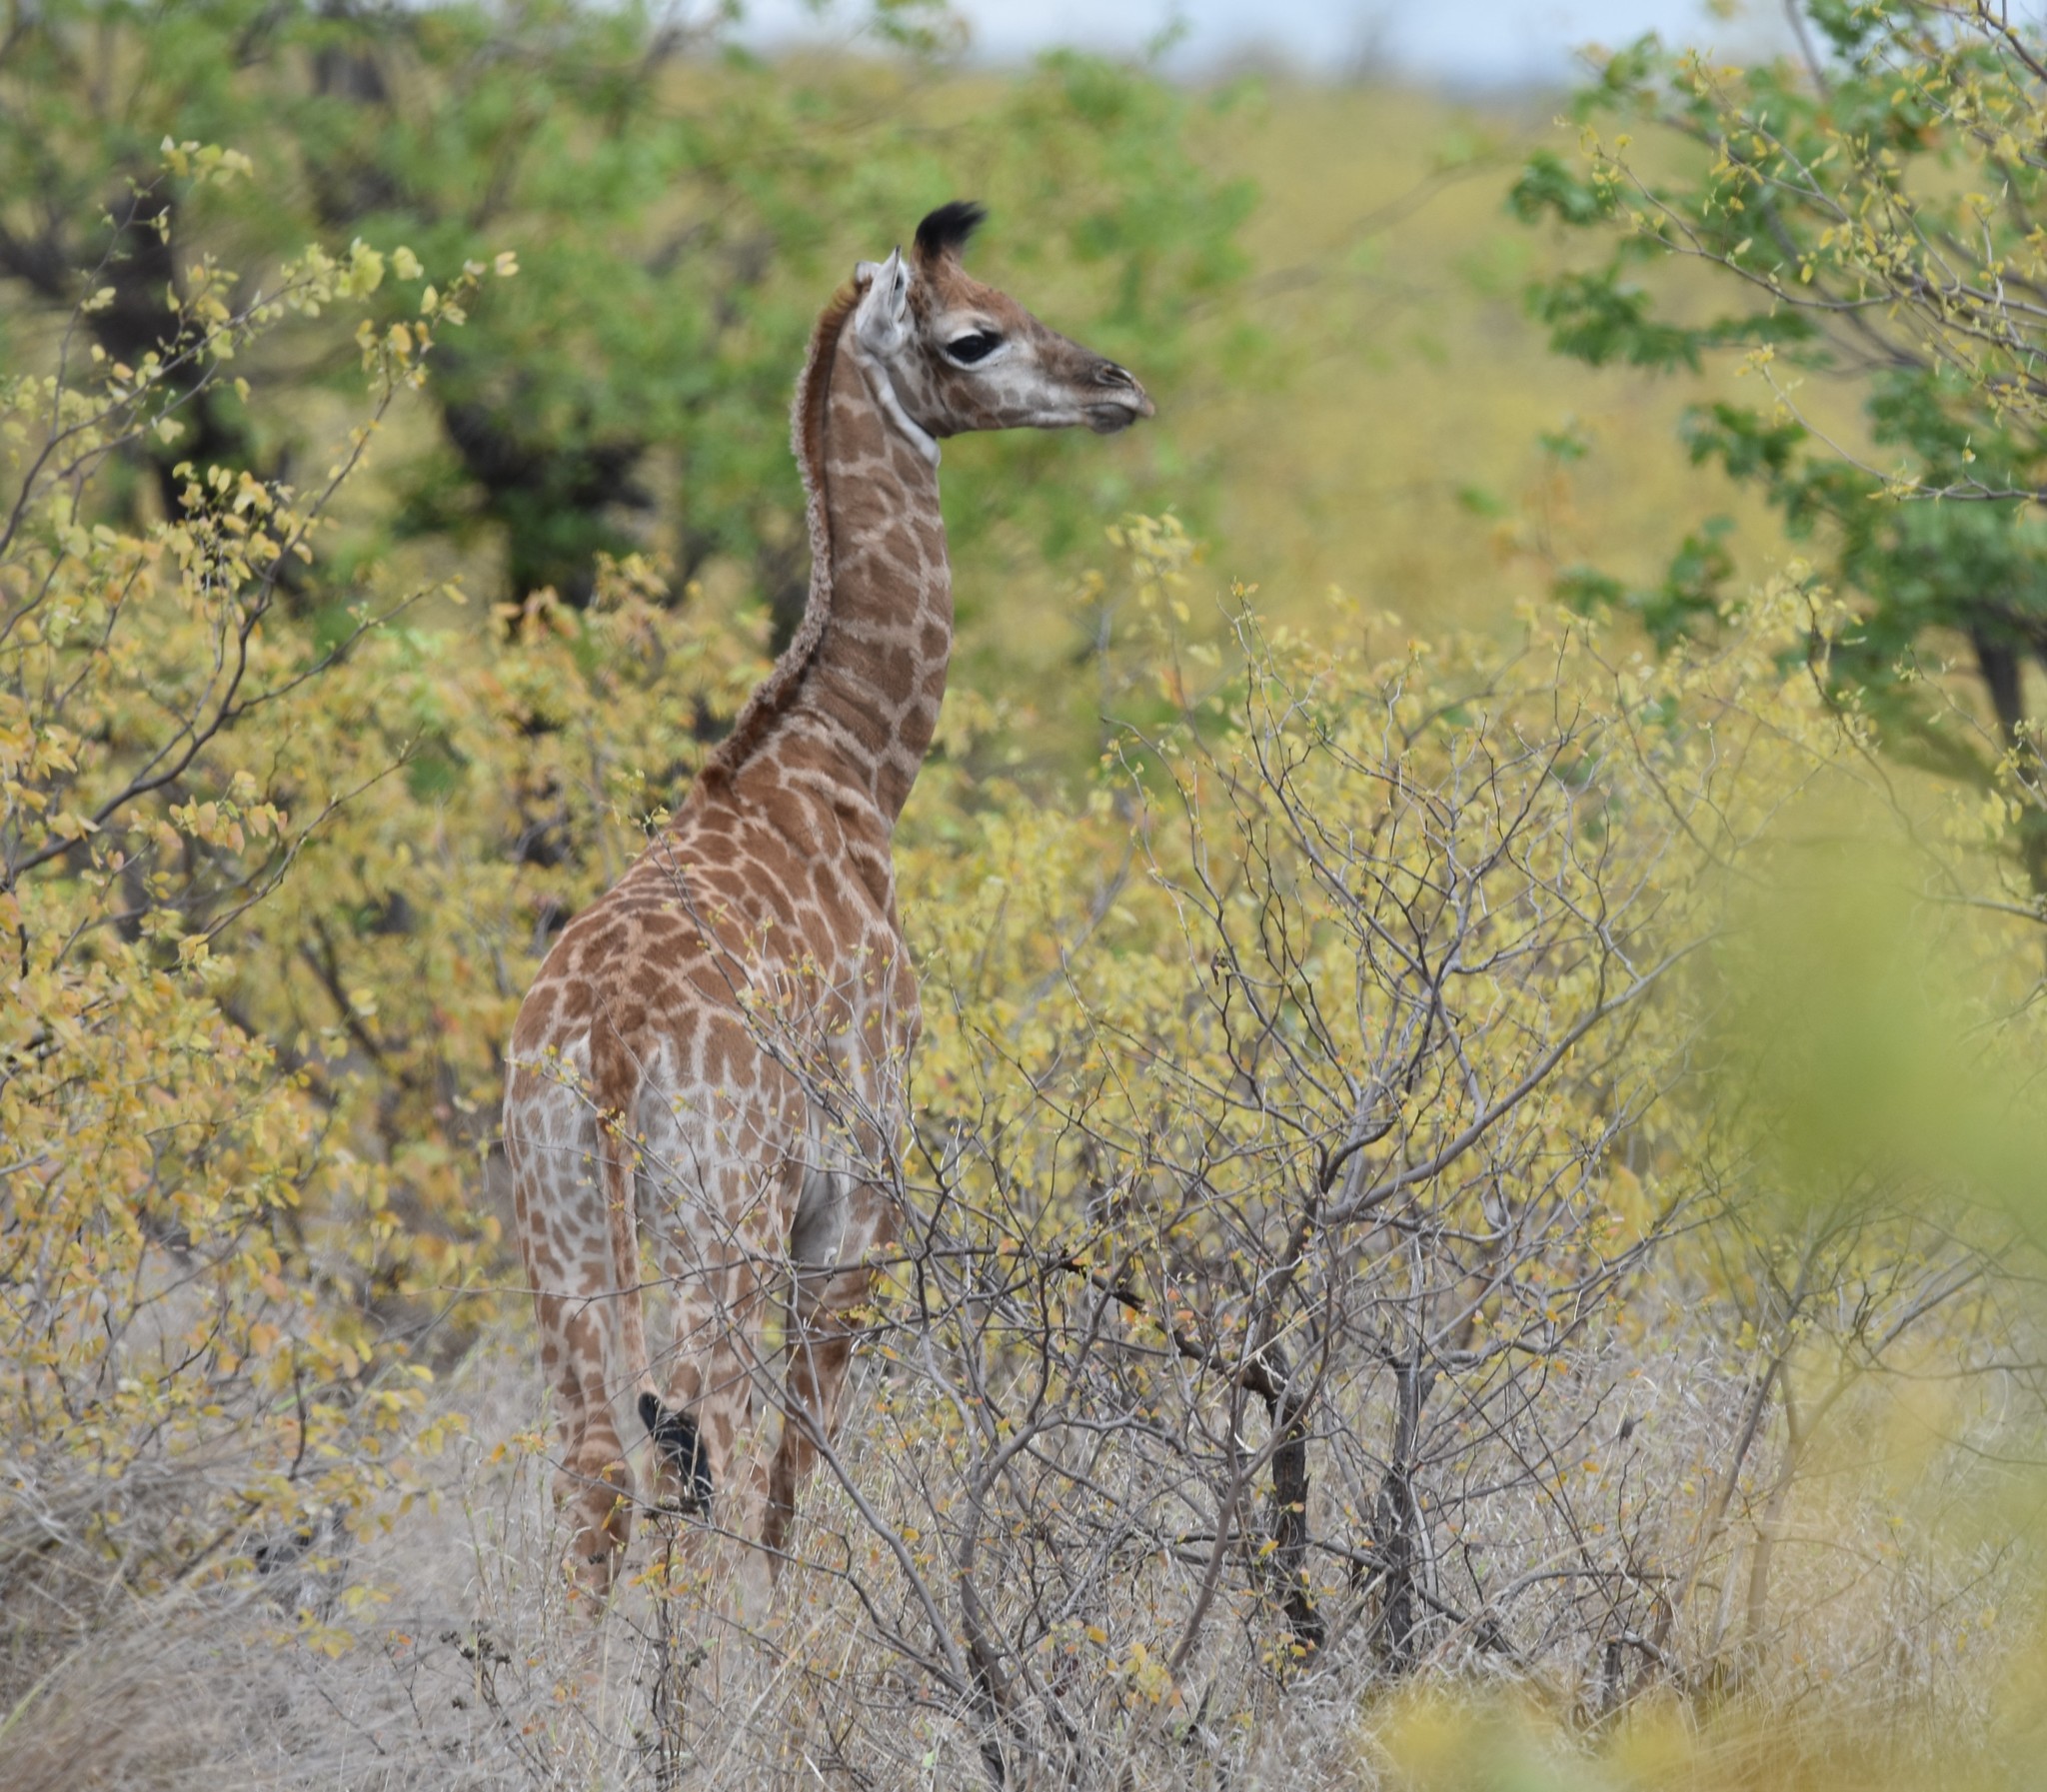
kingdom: Animalia
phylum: Chordata
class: Mammalia
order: Artiodactyla
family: Giraffidae
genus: Giraffa
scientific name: Giraffa giraffa
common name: Southern giraffe
